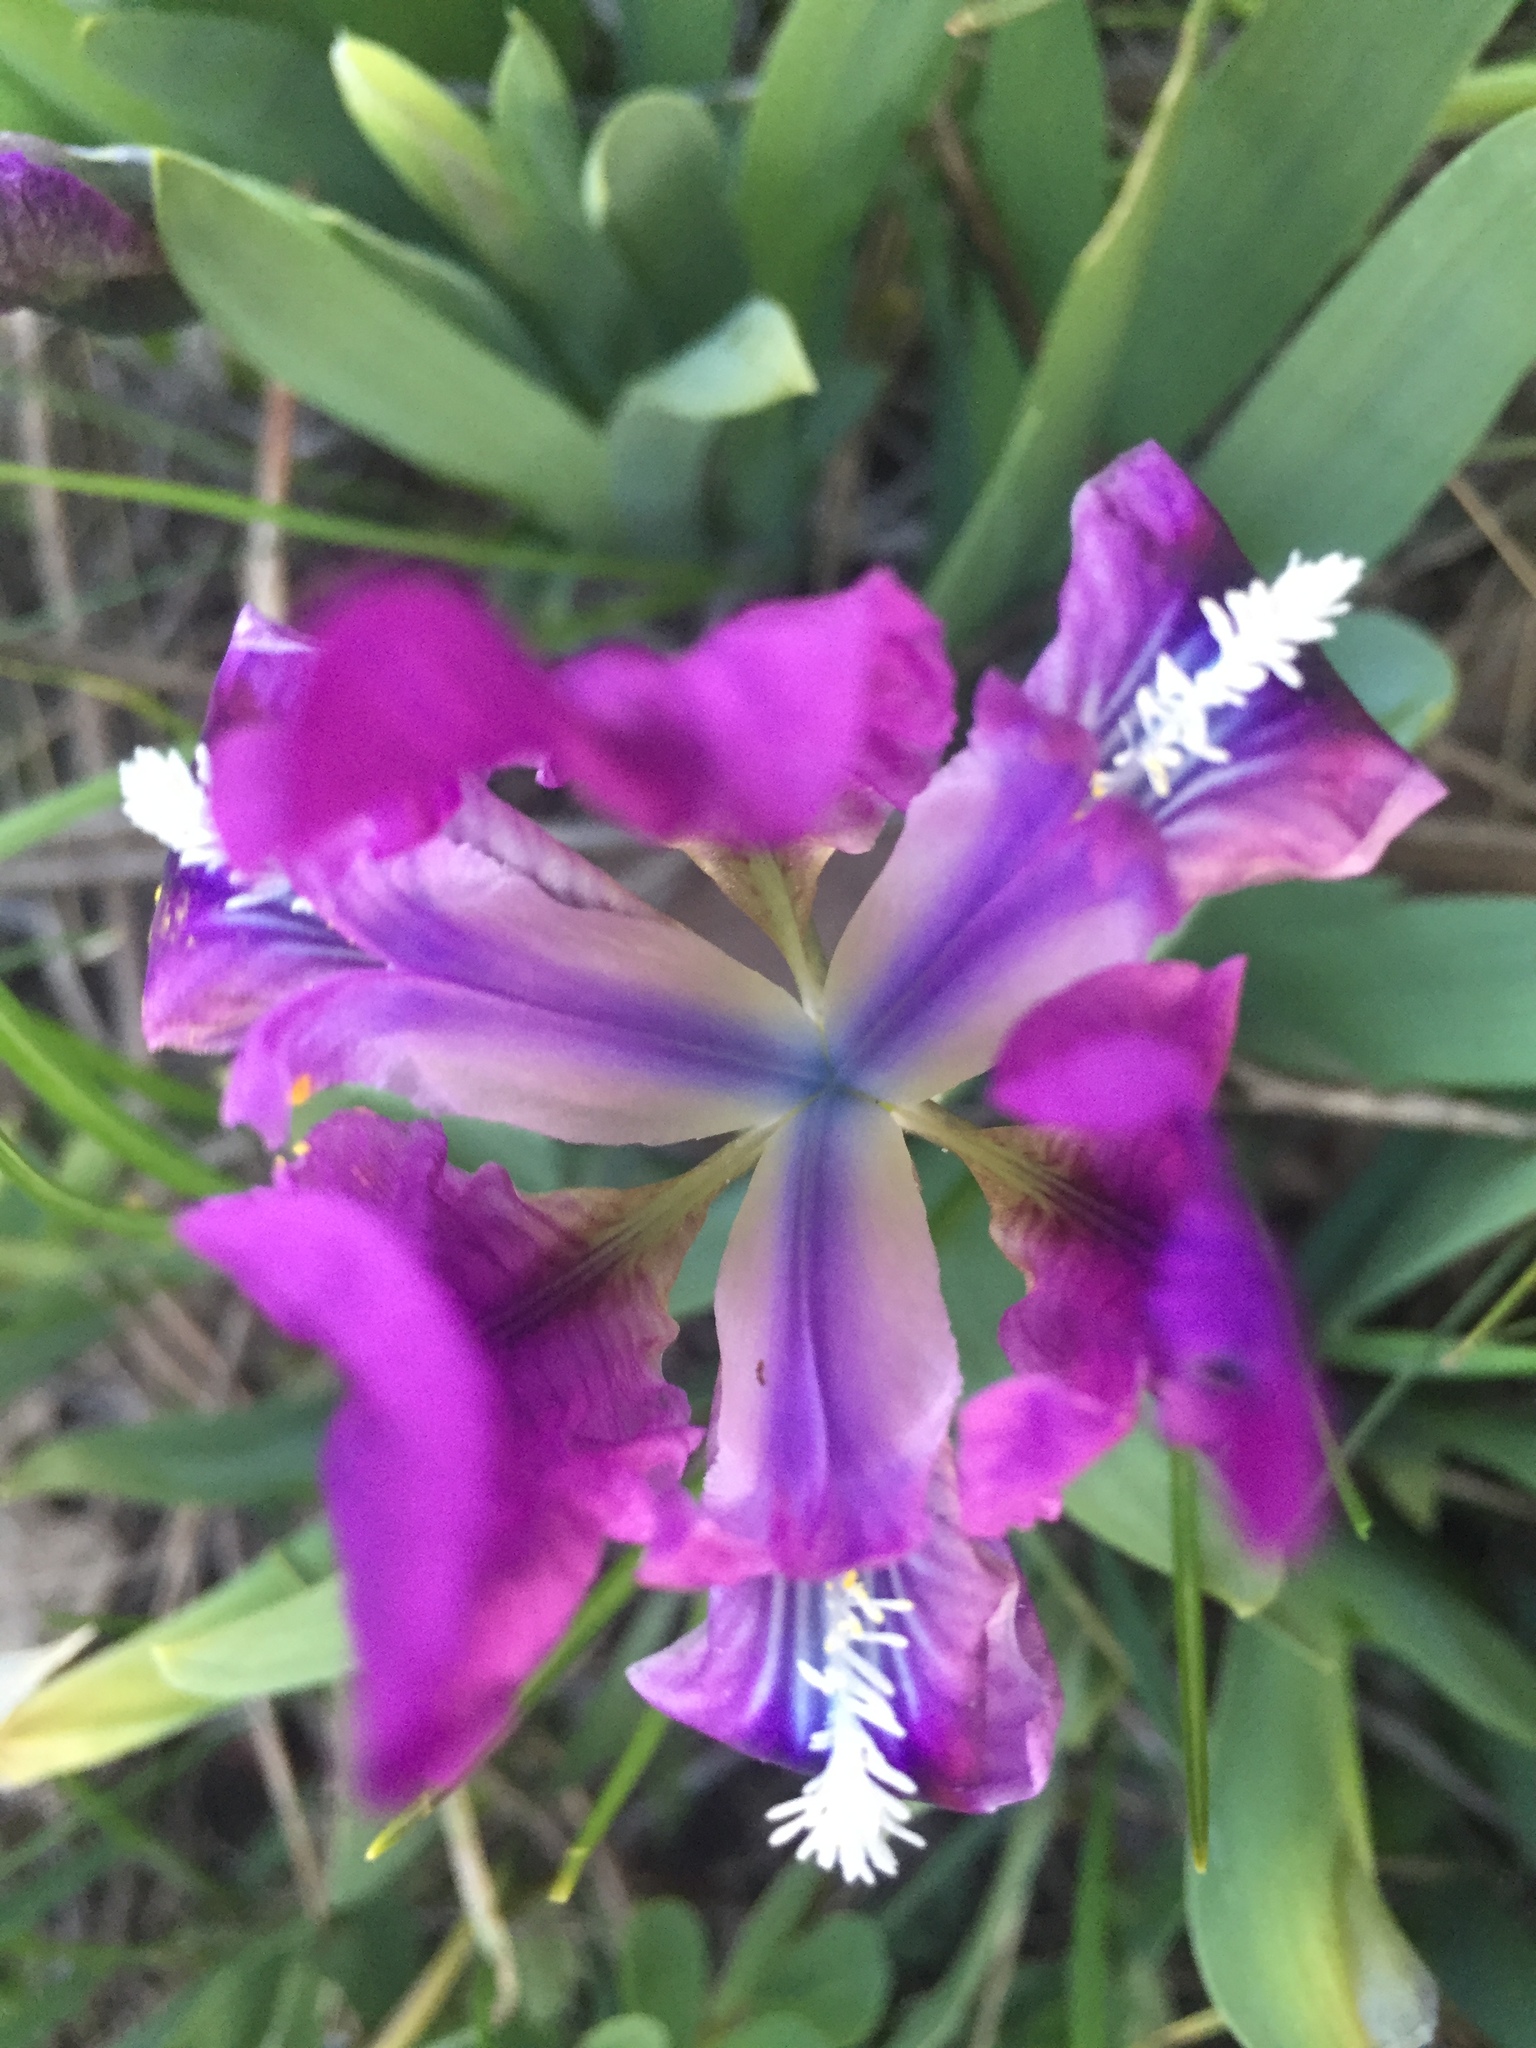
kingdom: Plantae
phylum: Tracheophyta
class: Liliopsida
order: Asparagales
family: Iridaceae
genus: Iris
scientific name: Iris pumila
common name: Dwarf iris
